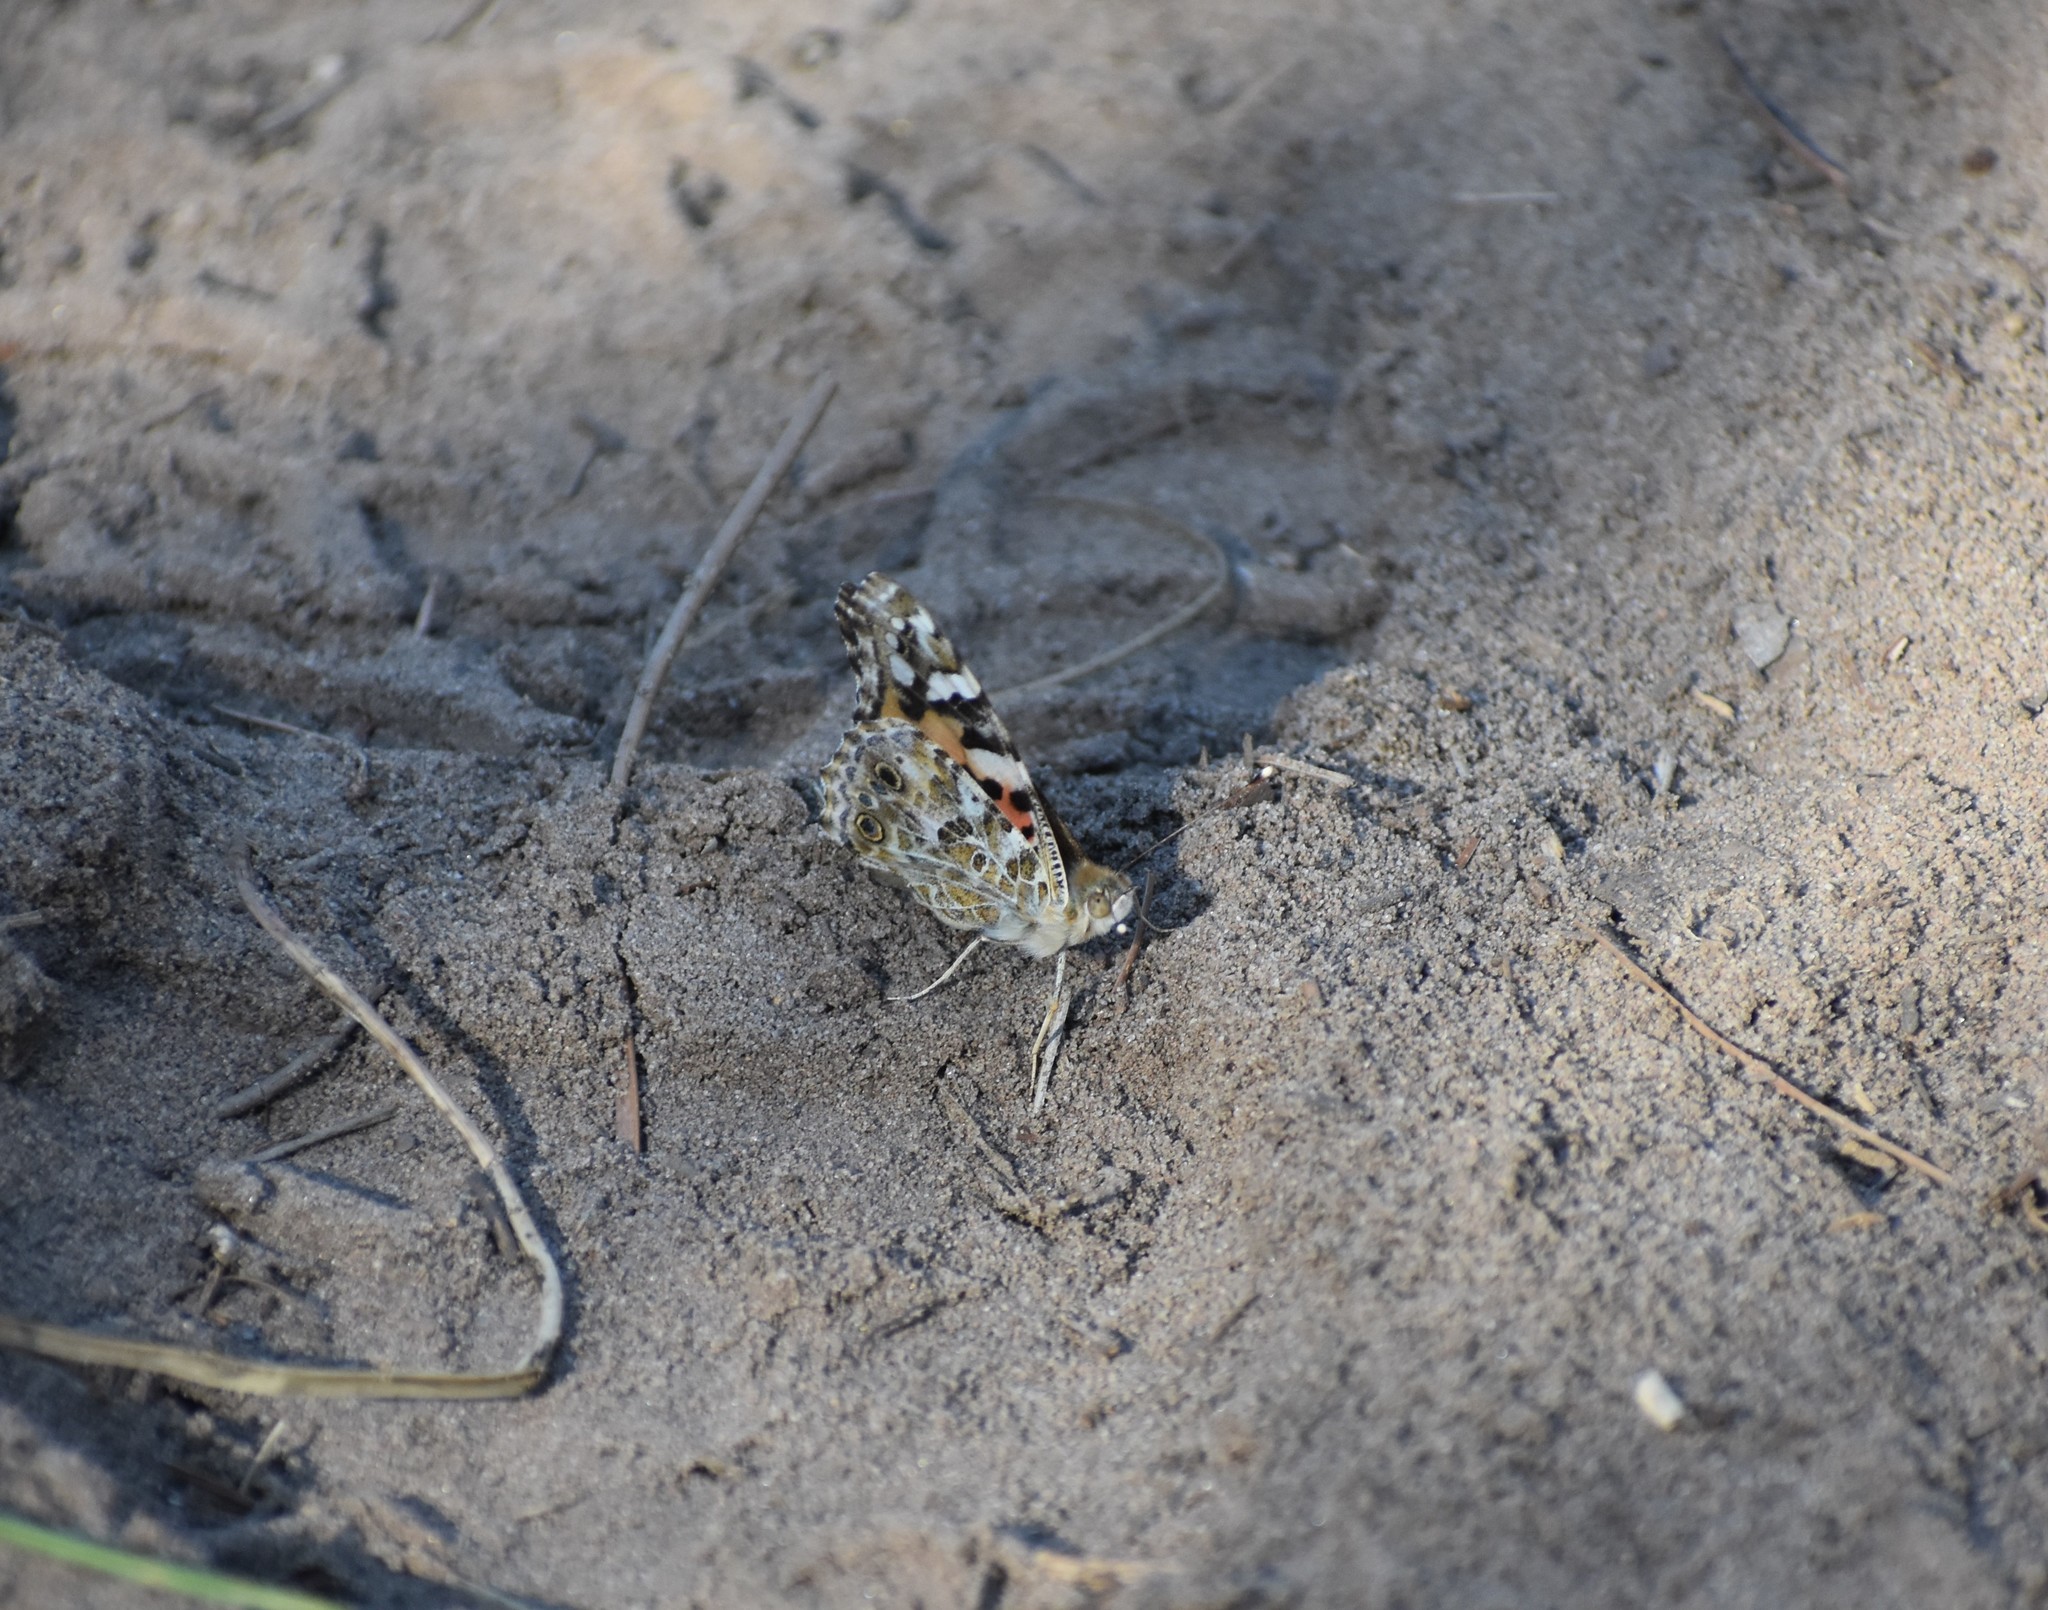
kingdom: Animalia
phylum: Arthropoda
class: Insecta
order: Lepidoptera
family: Nymphalidae
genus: Vanessa
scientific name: Vanessa cardui
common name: Painted lady
